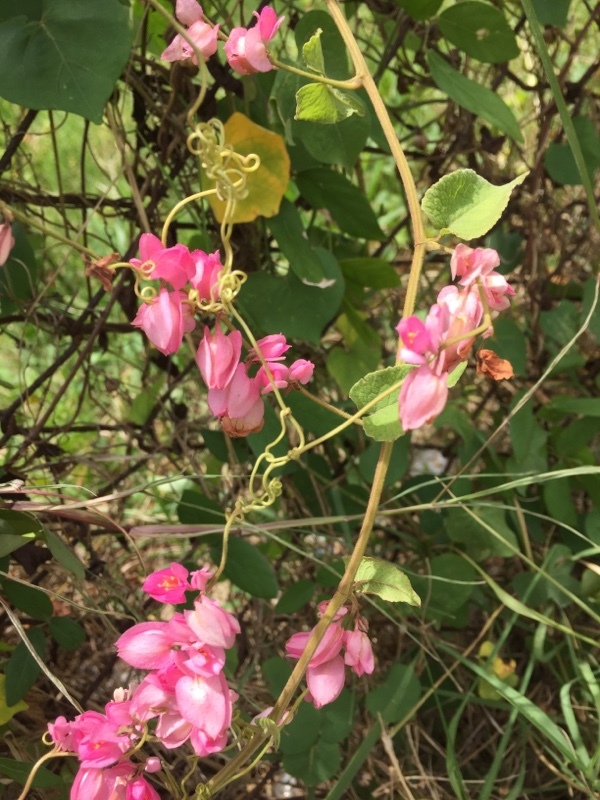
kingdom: Plantae
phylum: Tracheophyta
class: Magnoliopsida
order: Caryophyllales
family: Polygonaceae
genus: Antigonon
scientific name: Antigonon leptopus
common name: Coral vine
